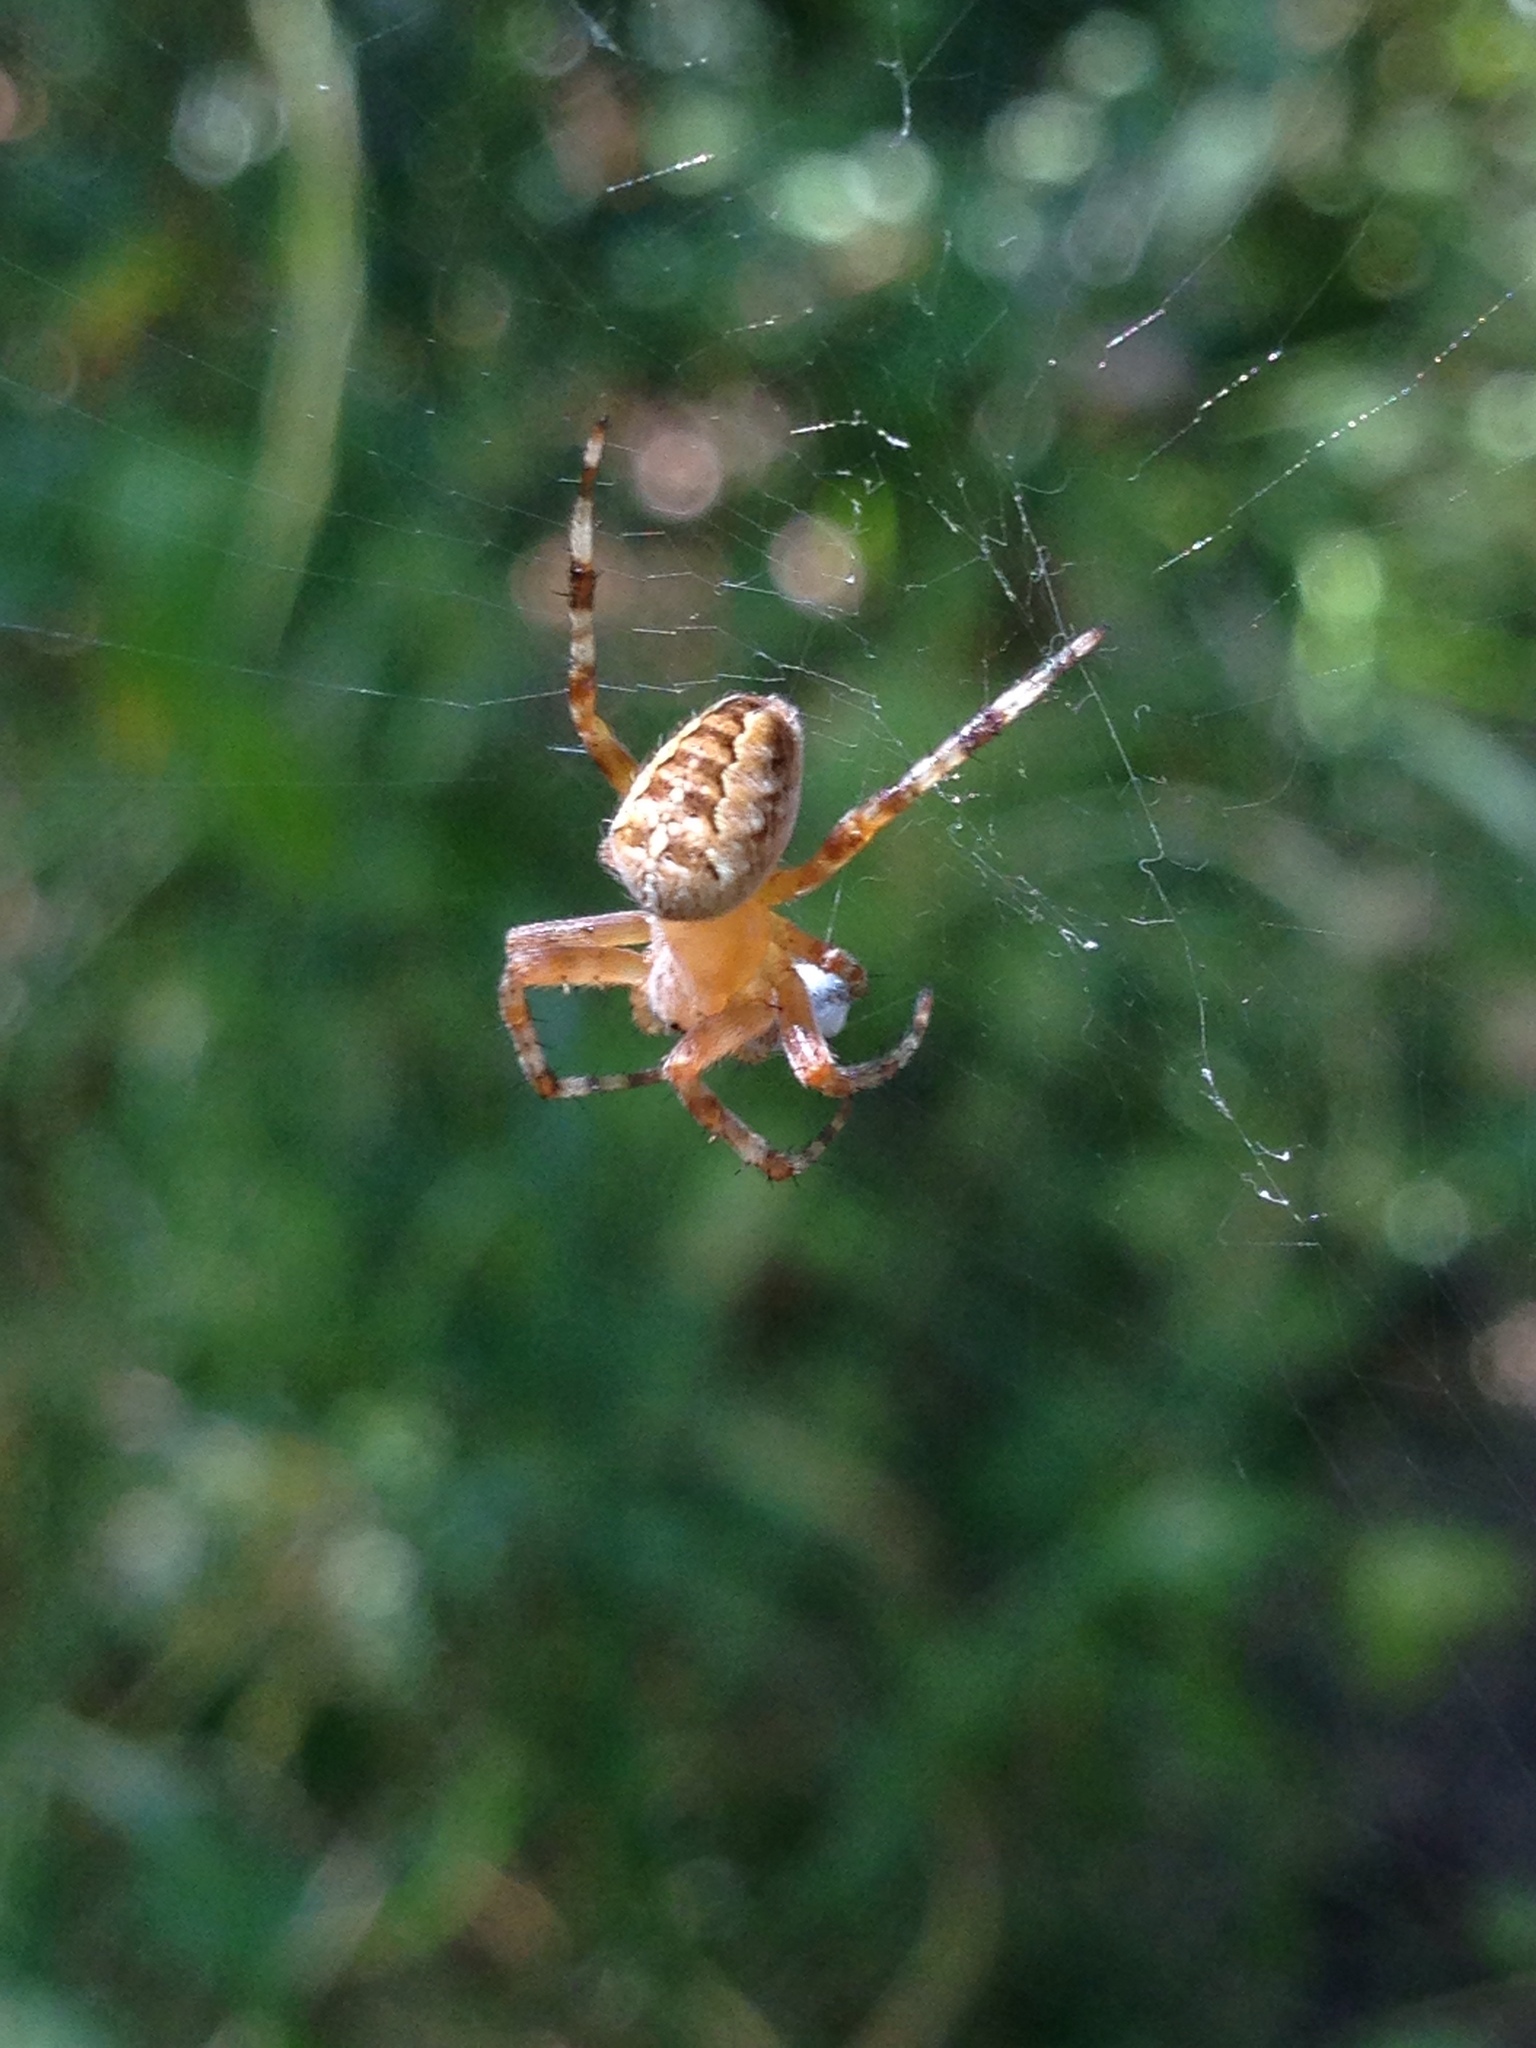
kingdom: Animalia
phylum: Arthropoda
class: Arachnida
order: Araneae
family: Araneidae
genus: Araneus
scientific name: Araneus diadematus
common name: Cross orbweaver
